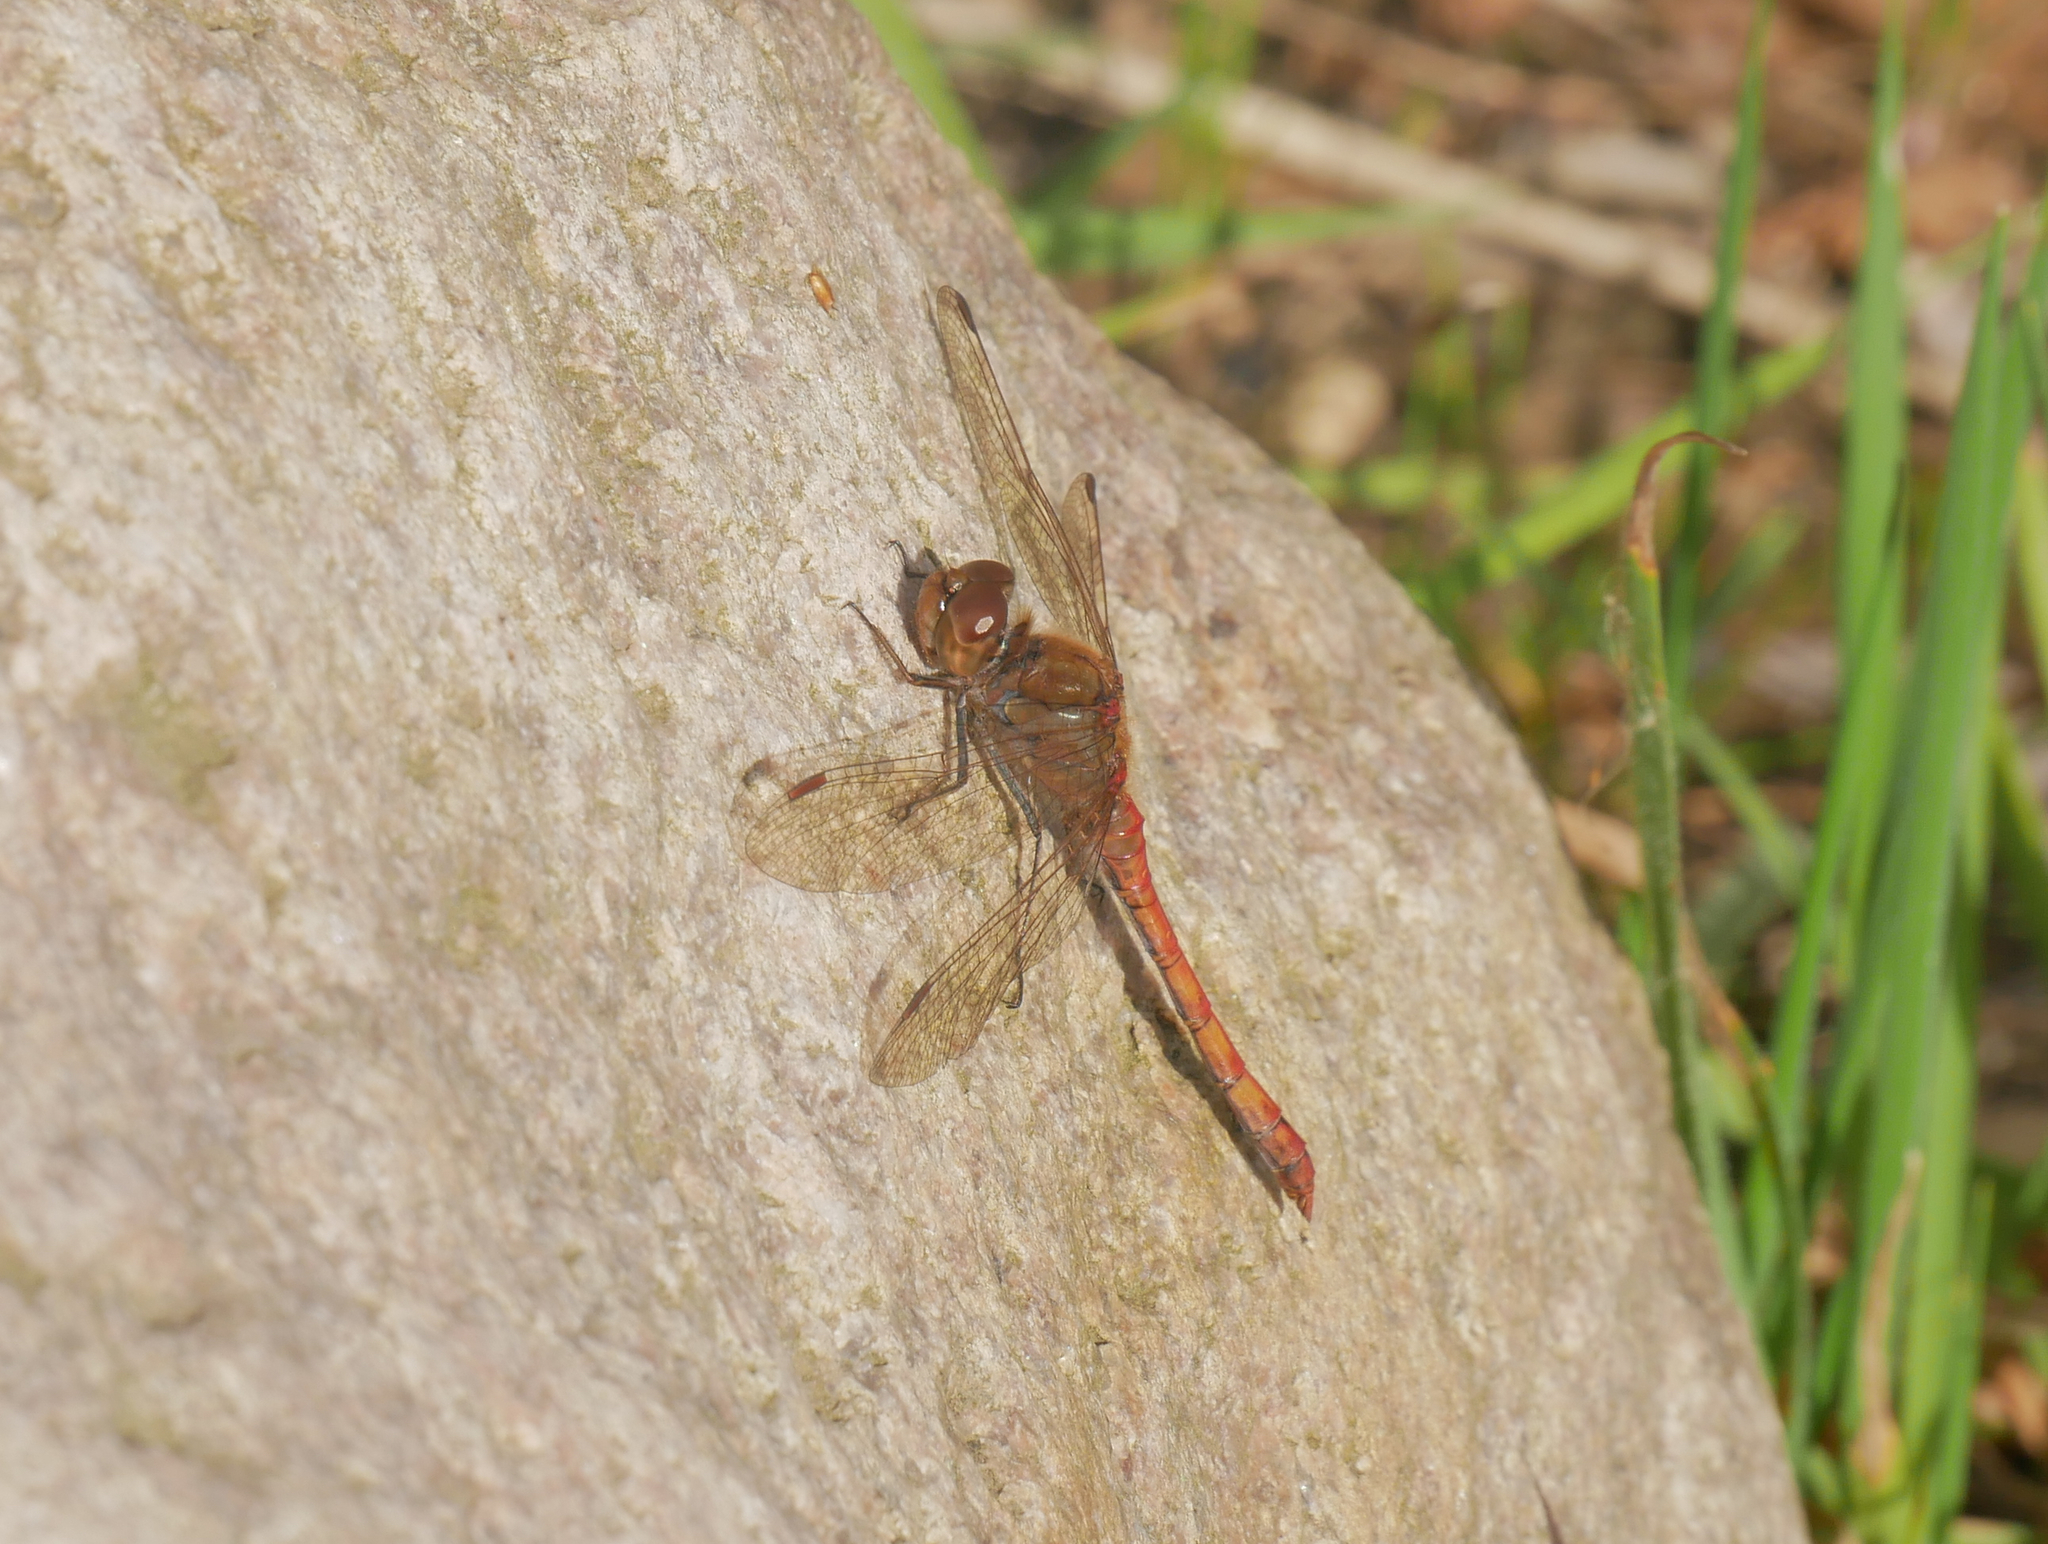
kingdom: Animalia
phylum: Arthropoda
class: Insecta
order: Odonata
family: Libellulidae
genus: Sympetrum
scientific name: Sympetrum striolatum
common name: Common darter
